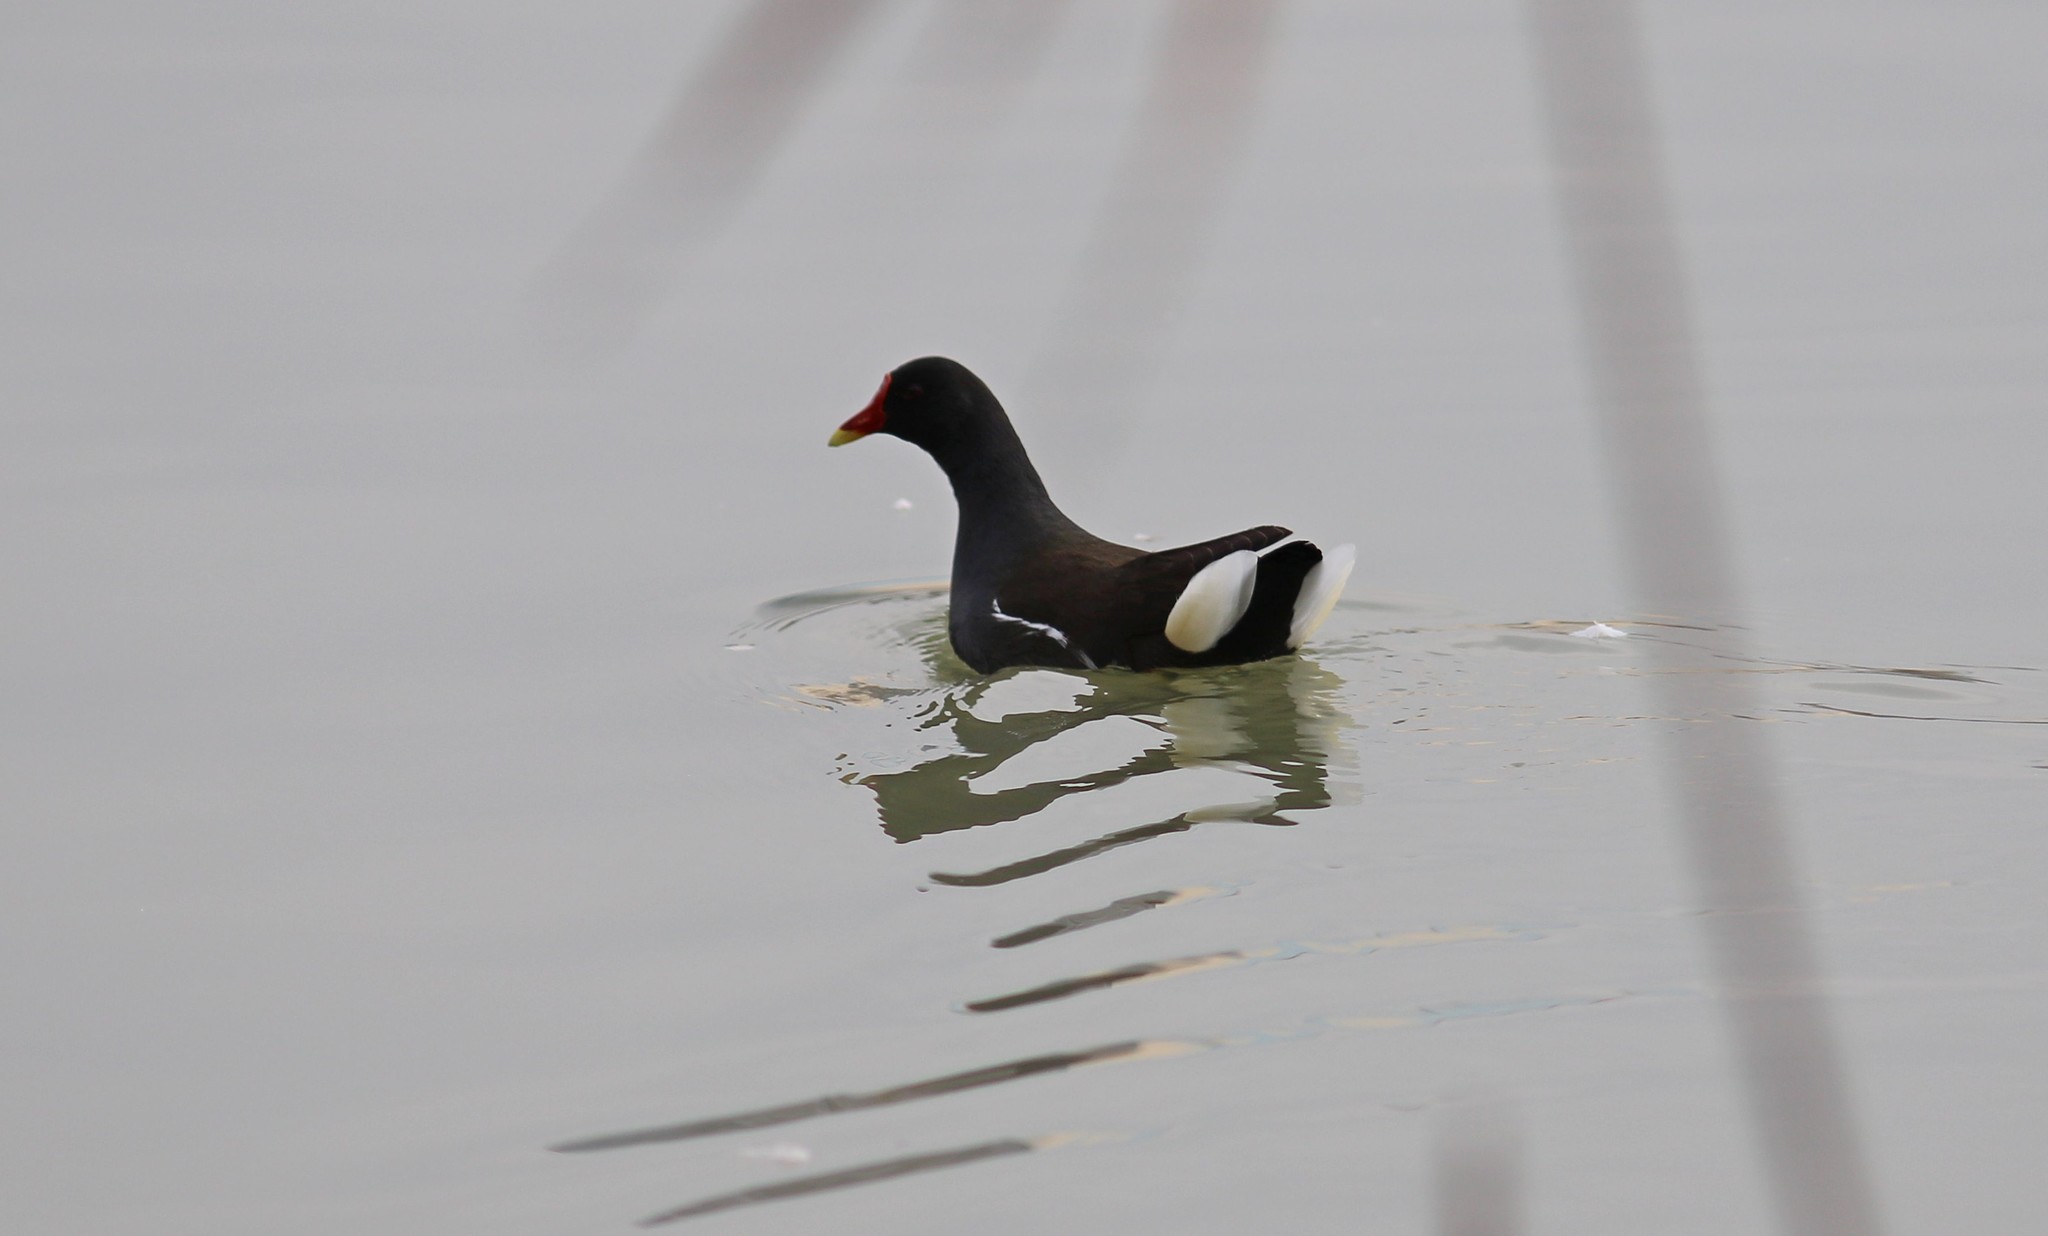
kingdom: Animalia
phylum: Chordata
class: Aves
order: Gruiformes
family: Rallidae
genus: Gallinula
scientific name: Gallinula chloropus
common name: Common moorhen
